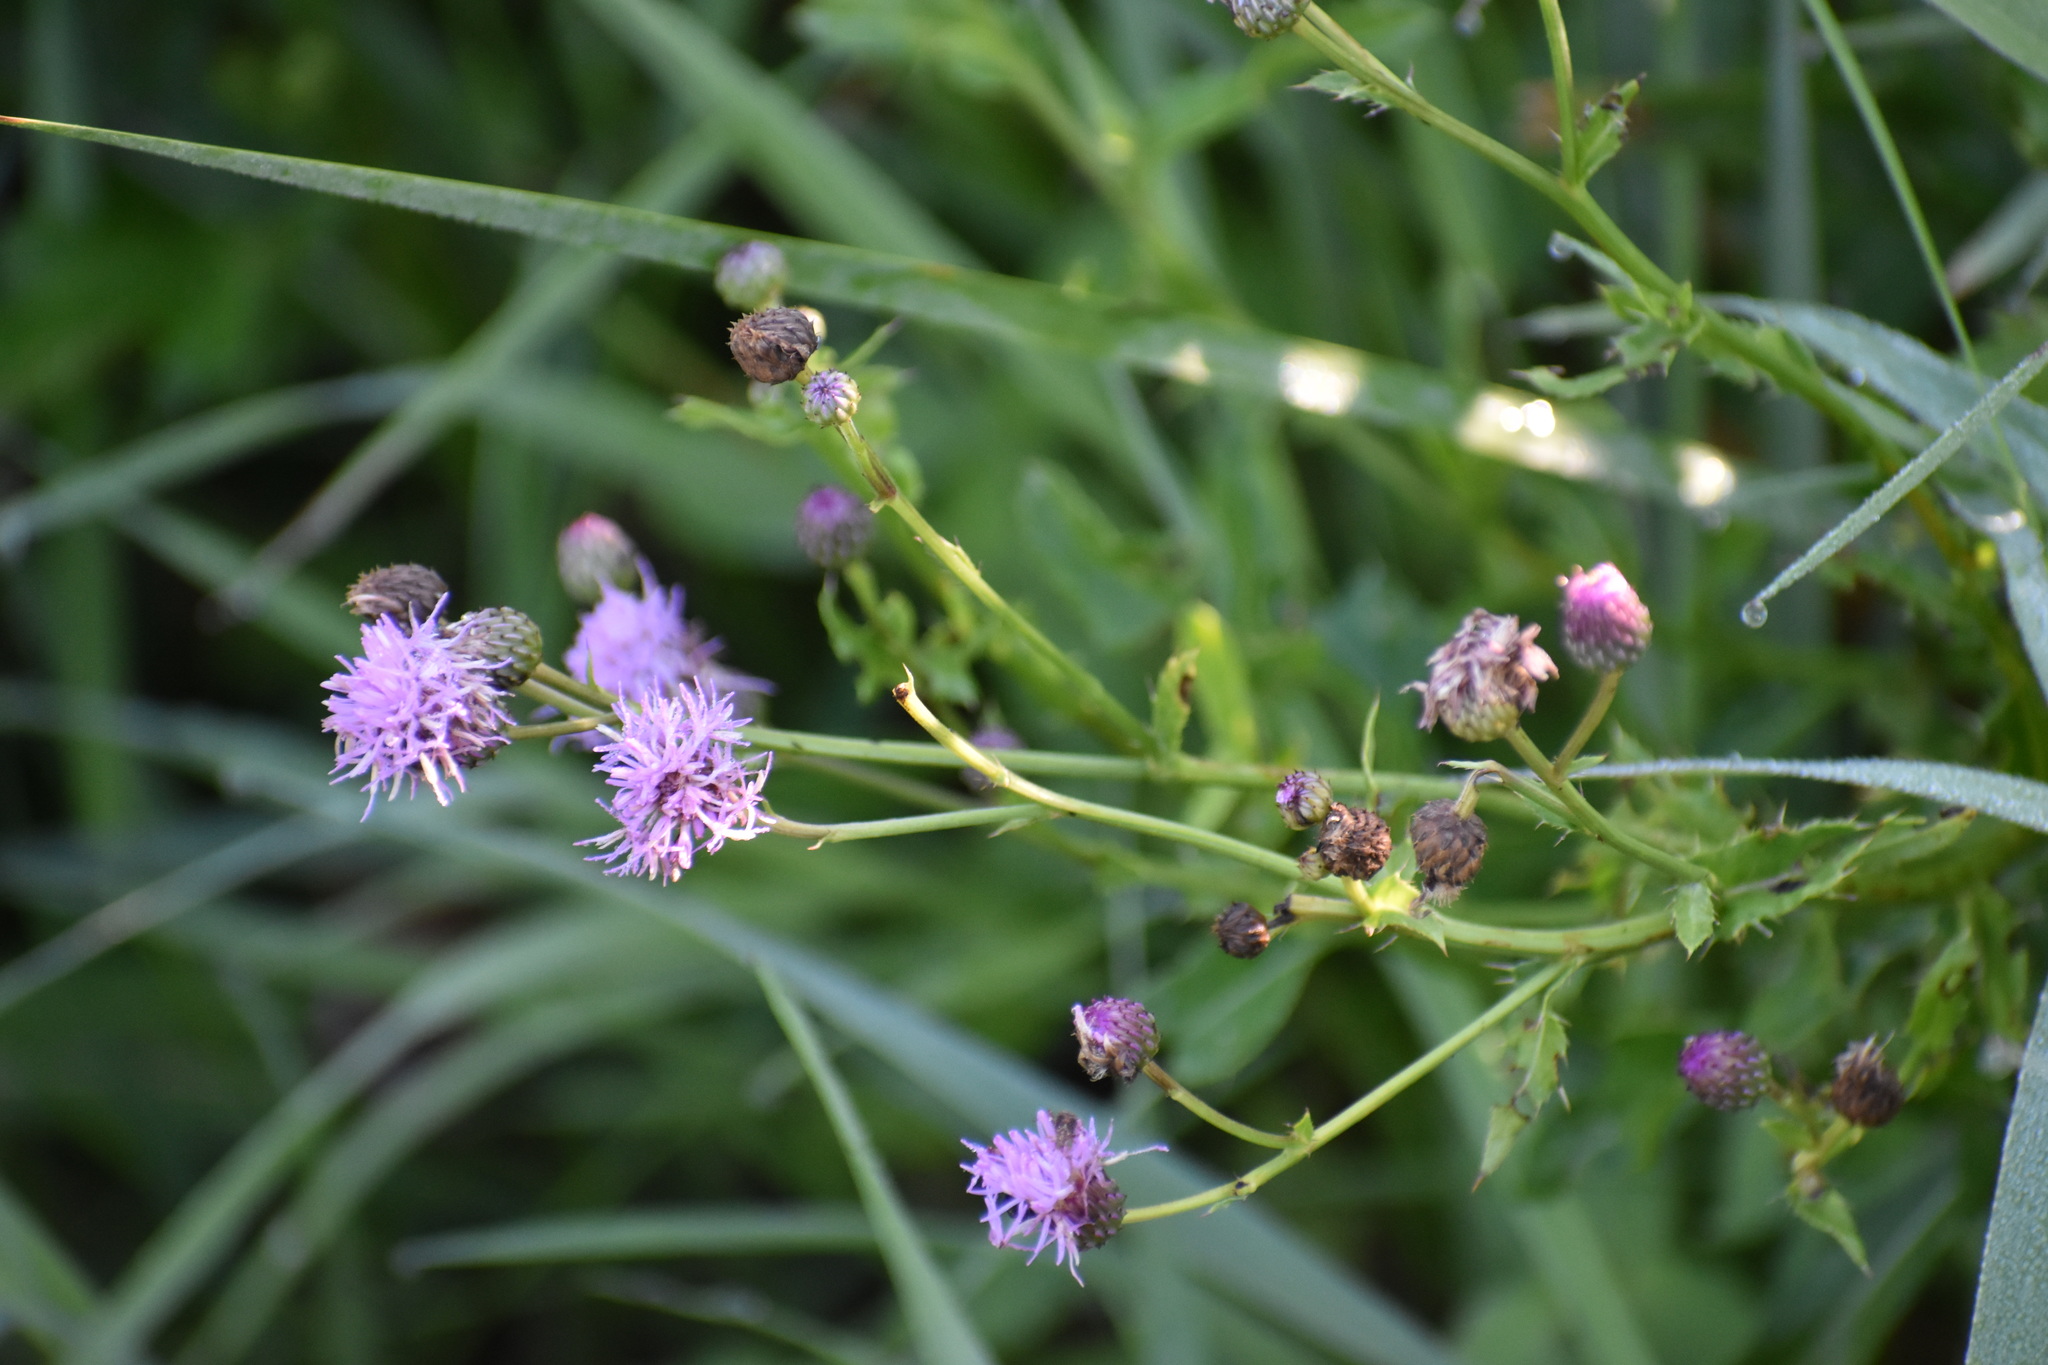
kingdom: Plantae
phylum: Tracheophyta
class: Magnoliopsida
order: Asterales
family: Asteraceae
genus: Cirsium
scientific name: Cirsium arvense
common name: Creeping thistle
